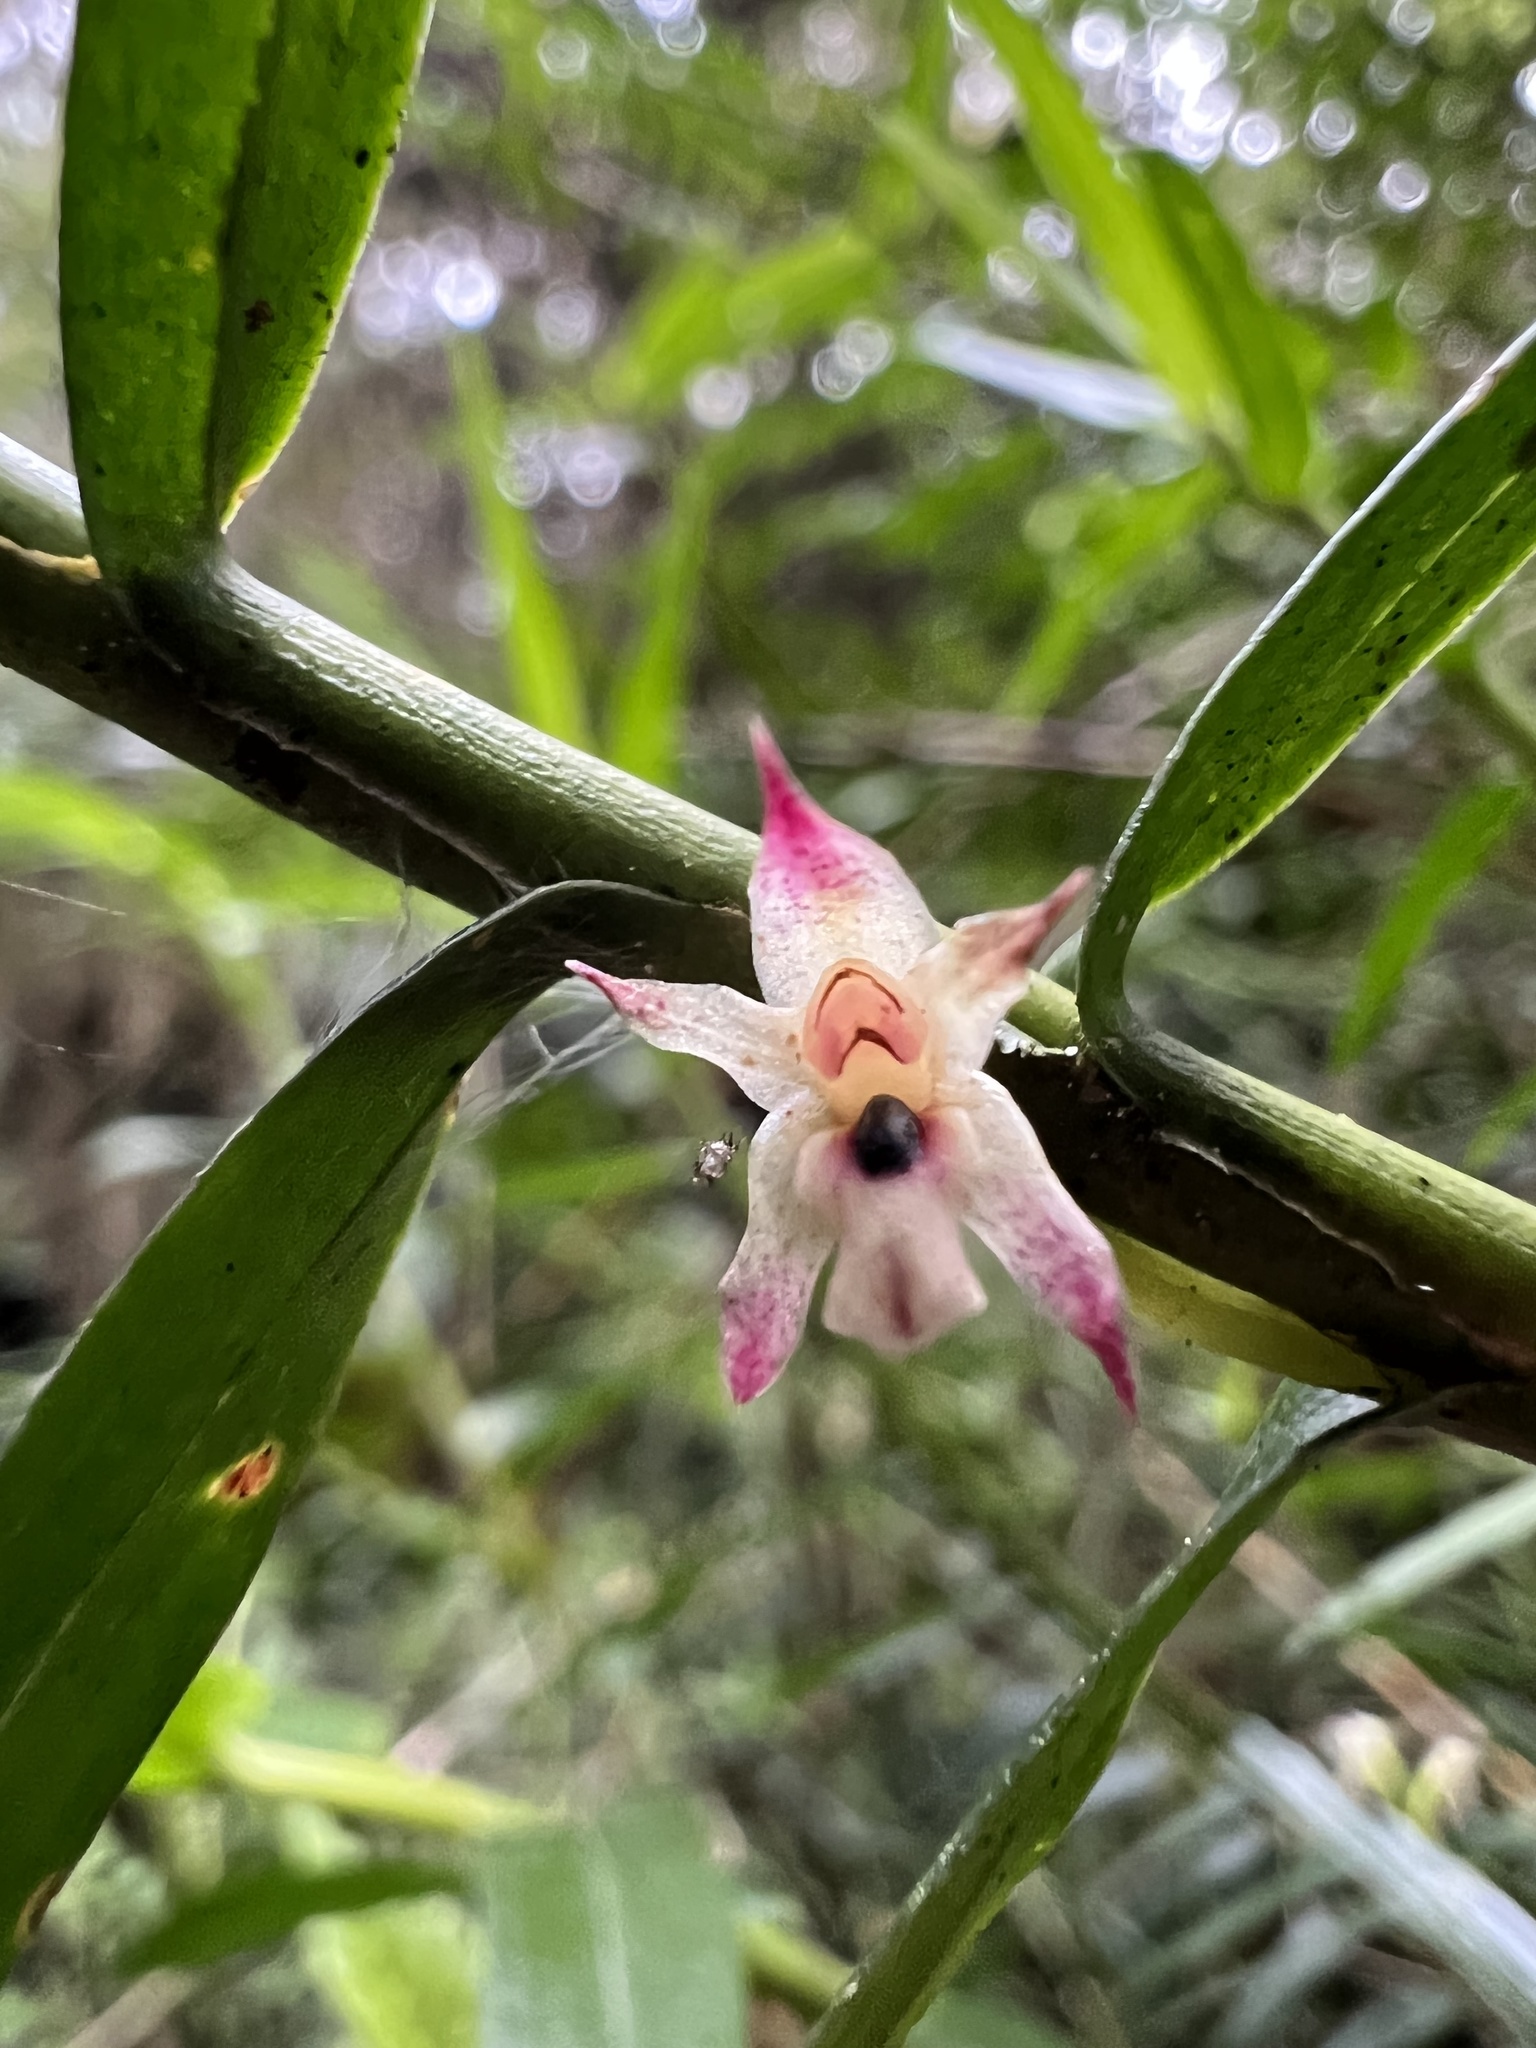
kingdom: Plantae
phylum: Tracheophyta
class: Liliopsida
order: Asparagales
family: Orchidaceae
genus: Maxillaria
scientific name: Maxillaria graminifolia
